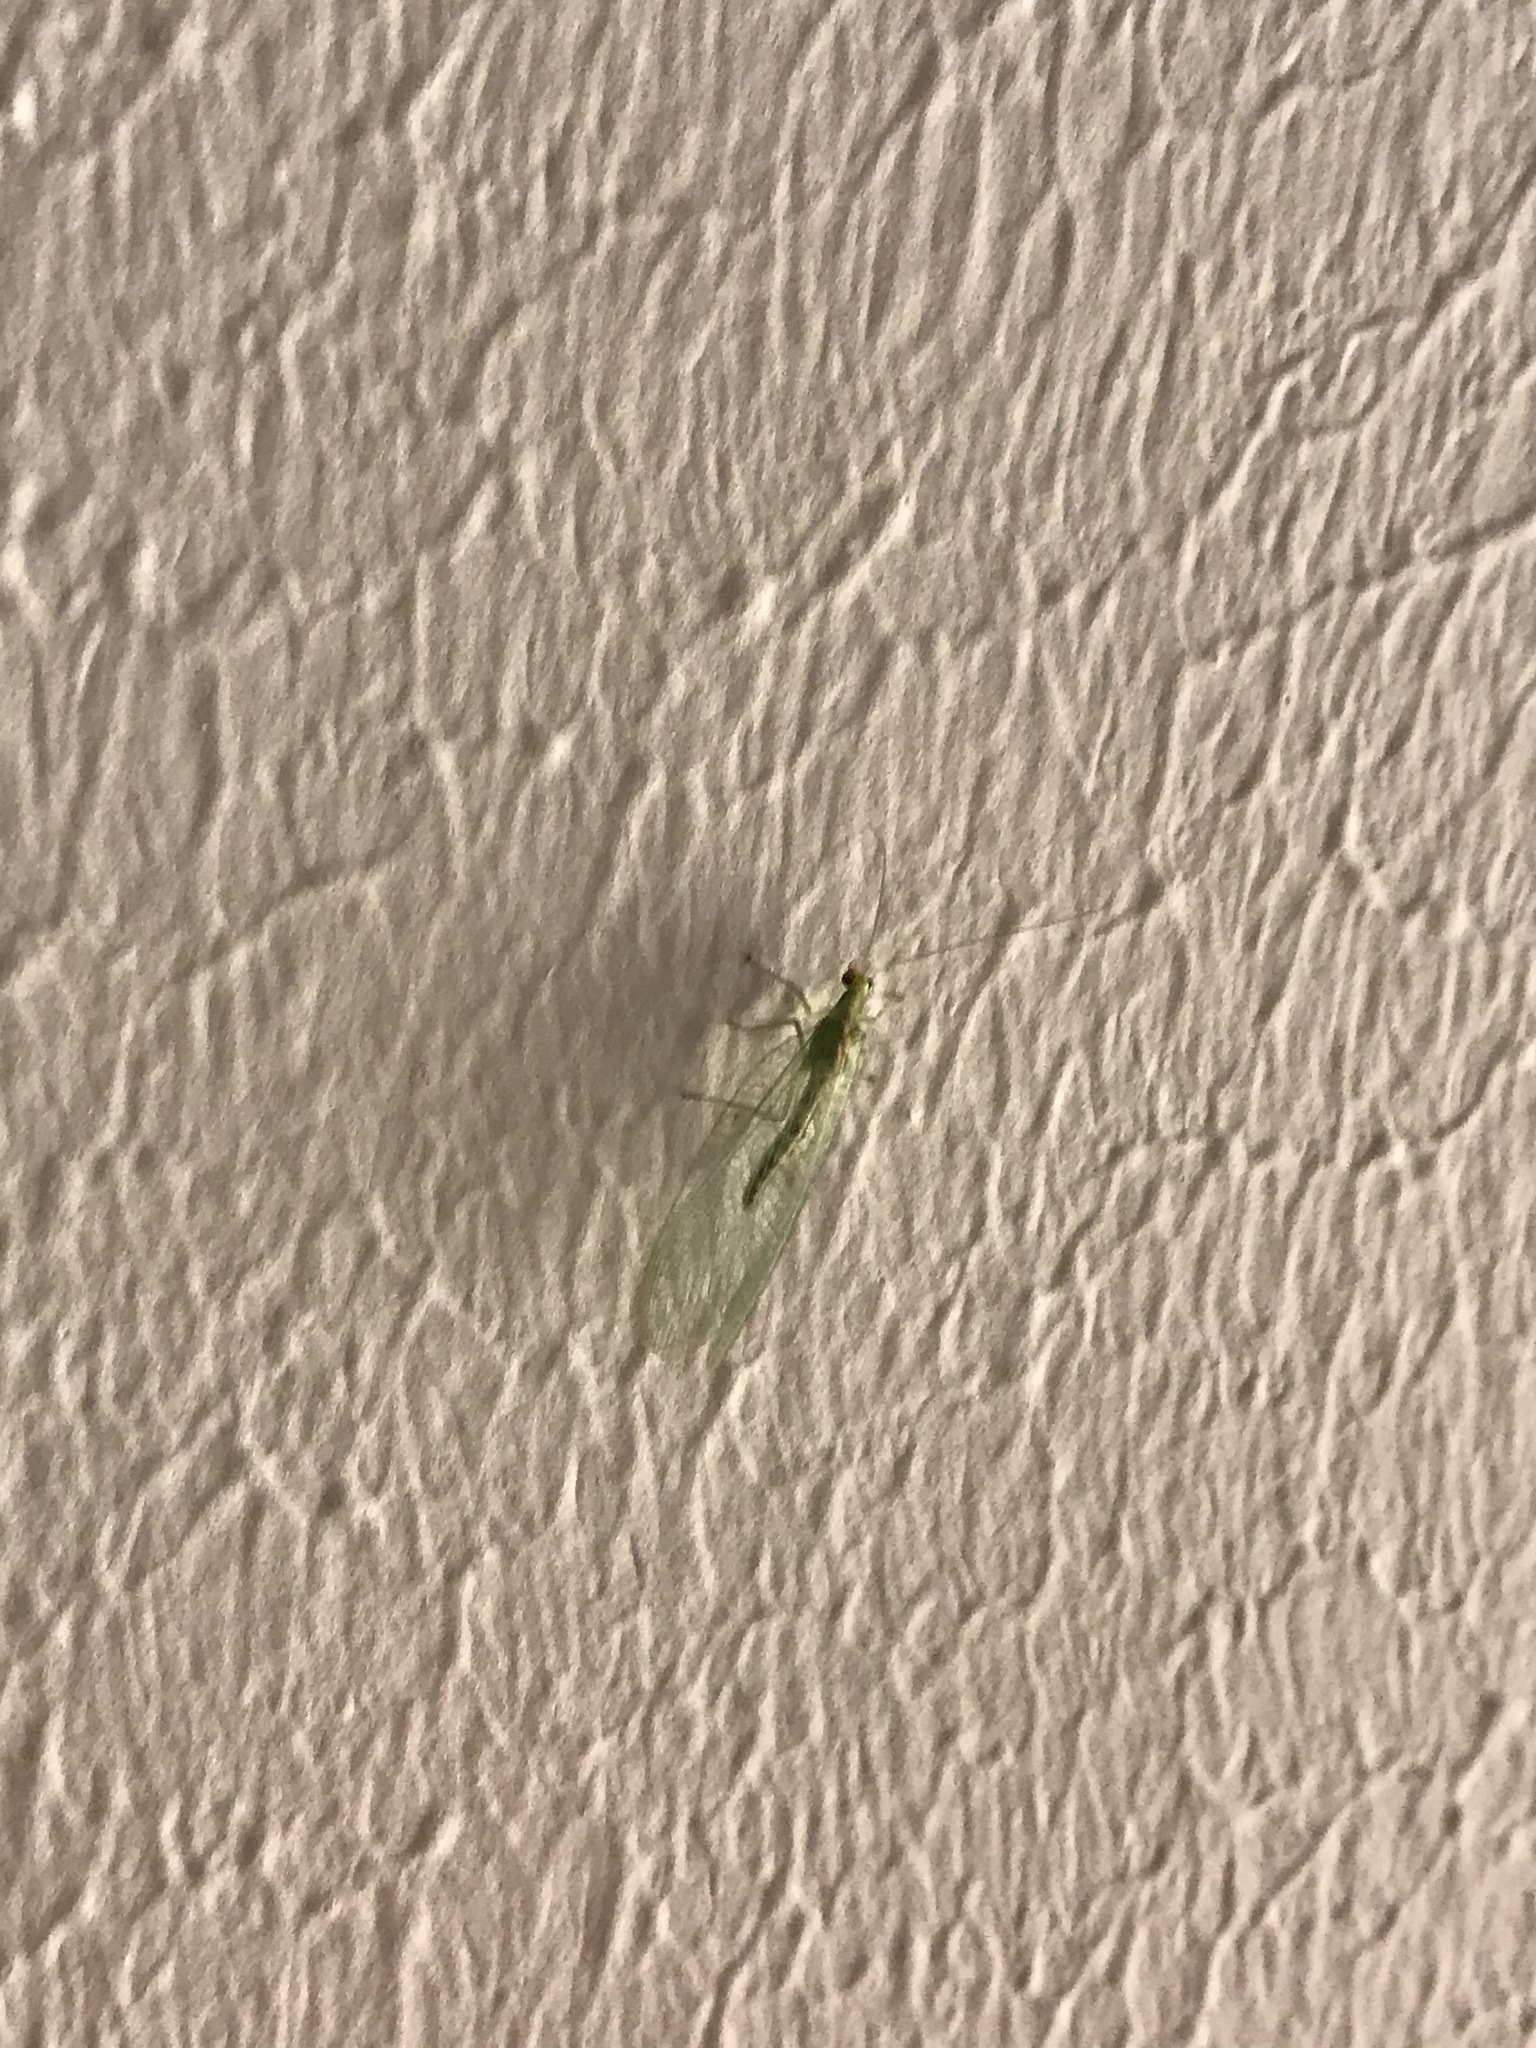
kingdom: Animalia
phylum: Arthropoda
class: Insecta
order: Neuroptera
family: Chrysopidae
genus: Chrysoperla
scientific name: Chrysoperla
